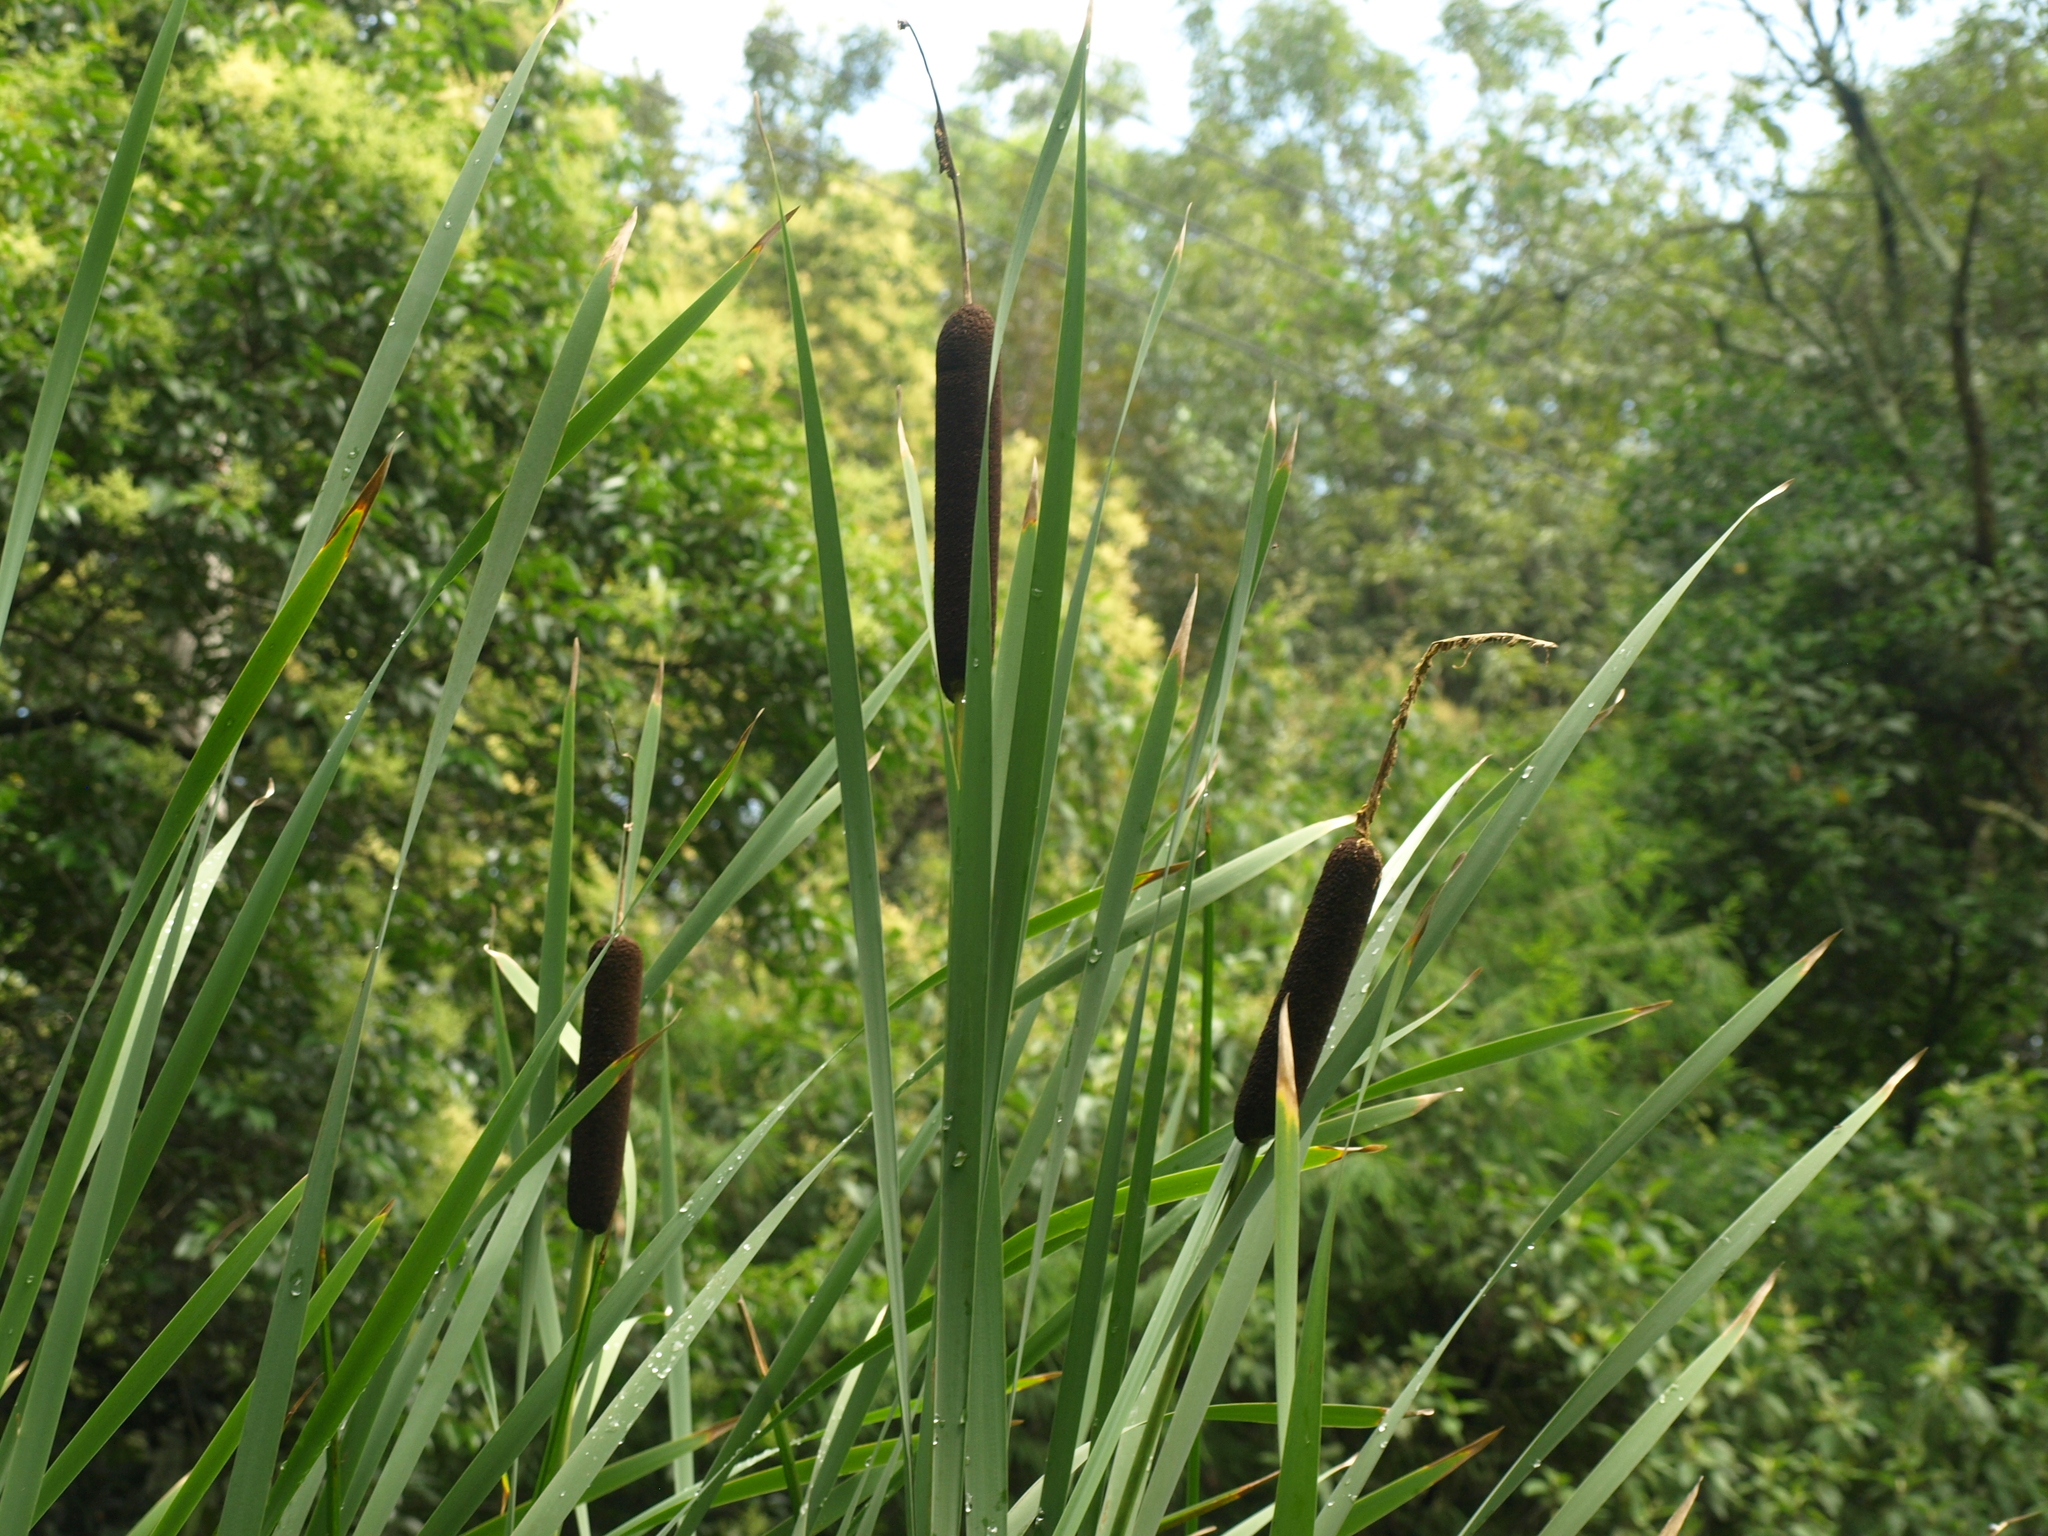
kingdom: Plantae
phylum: Tracheophyta
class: Liliopsida
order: Poales
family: Typhaceae
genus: Typha
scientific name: Typha latifolia
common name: Broadleaf cattail
